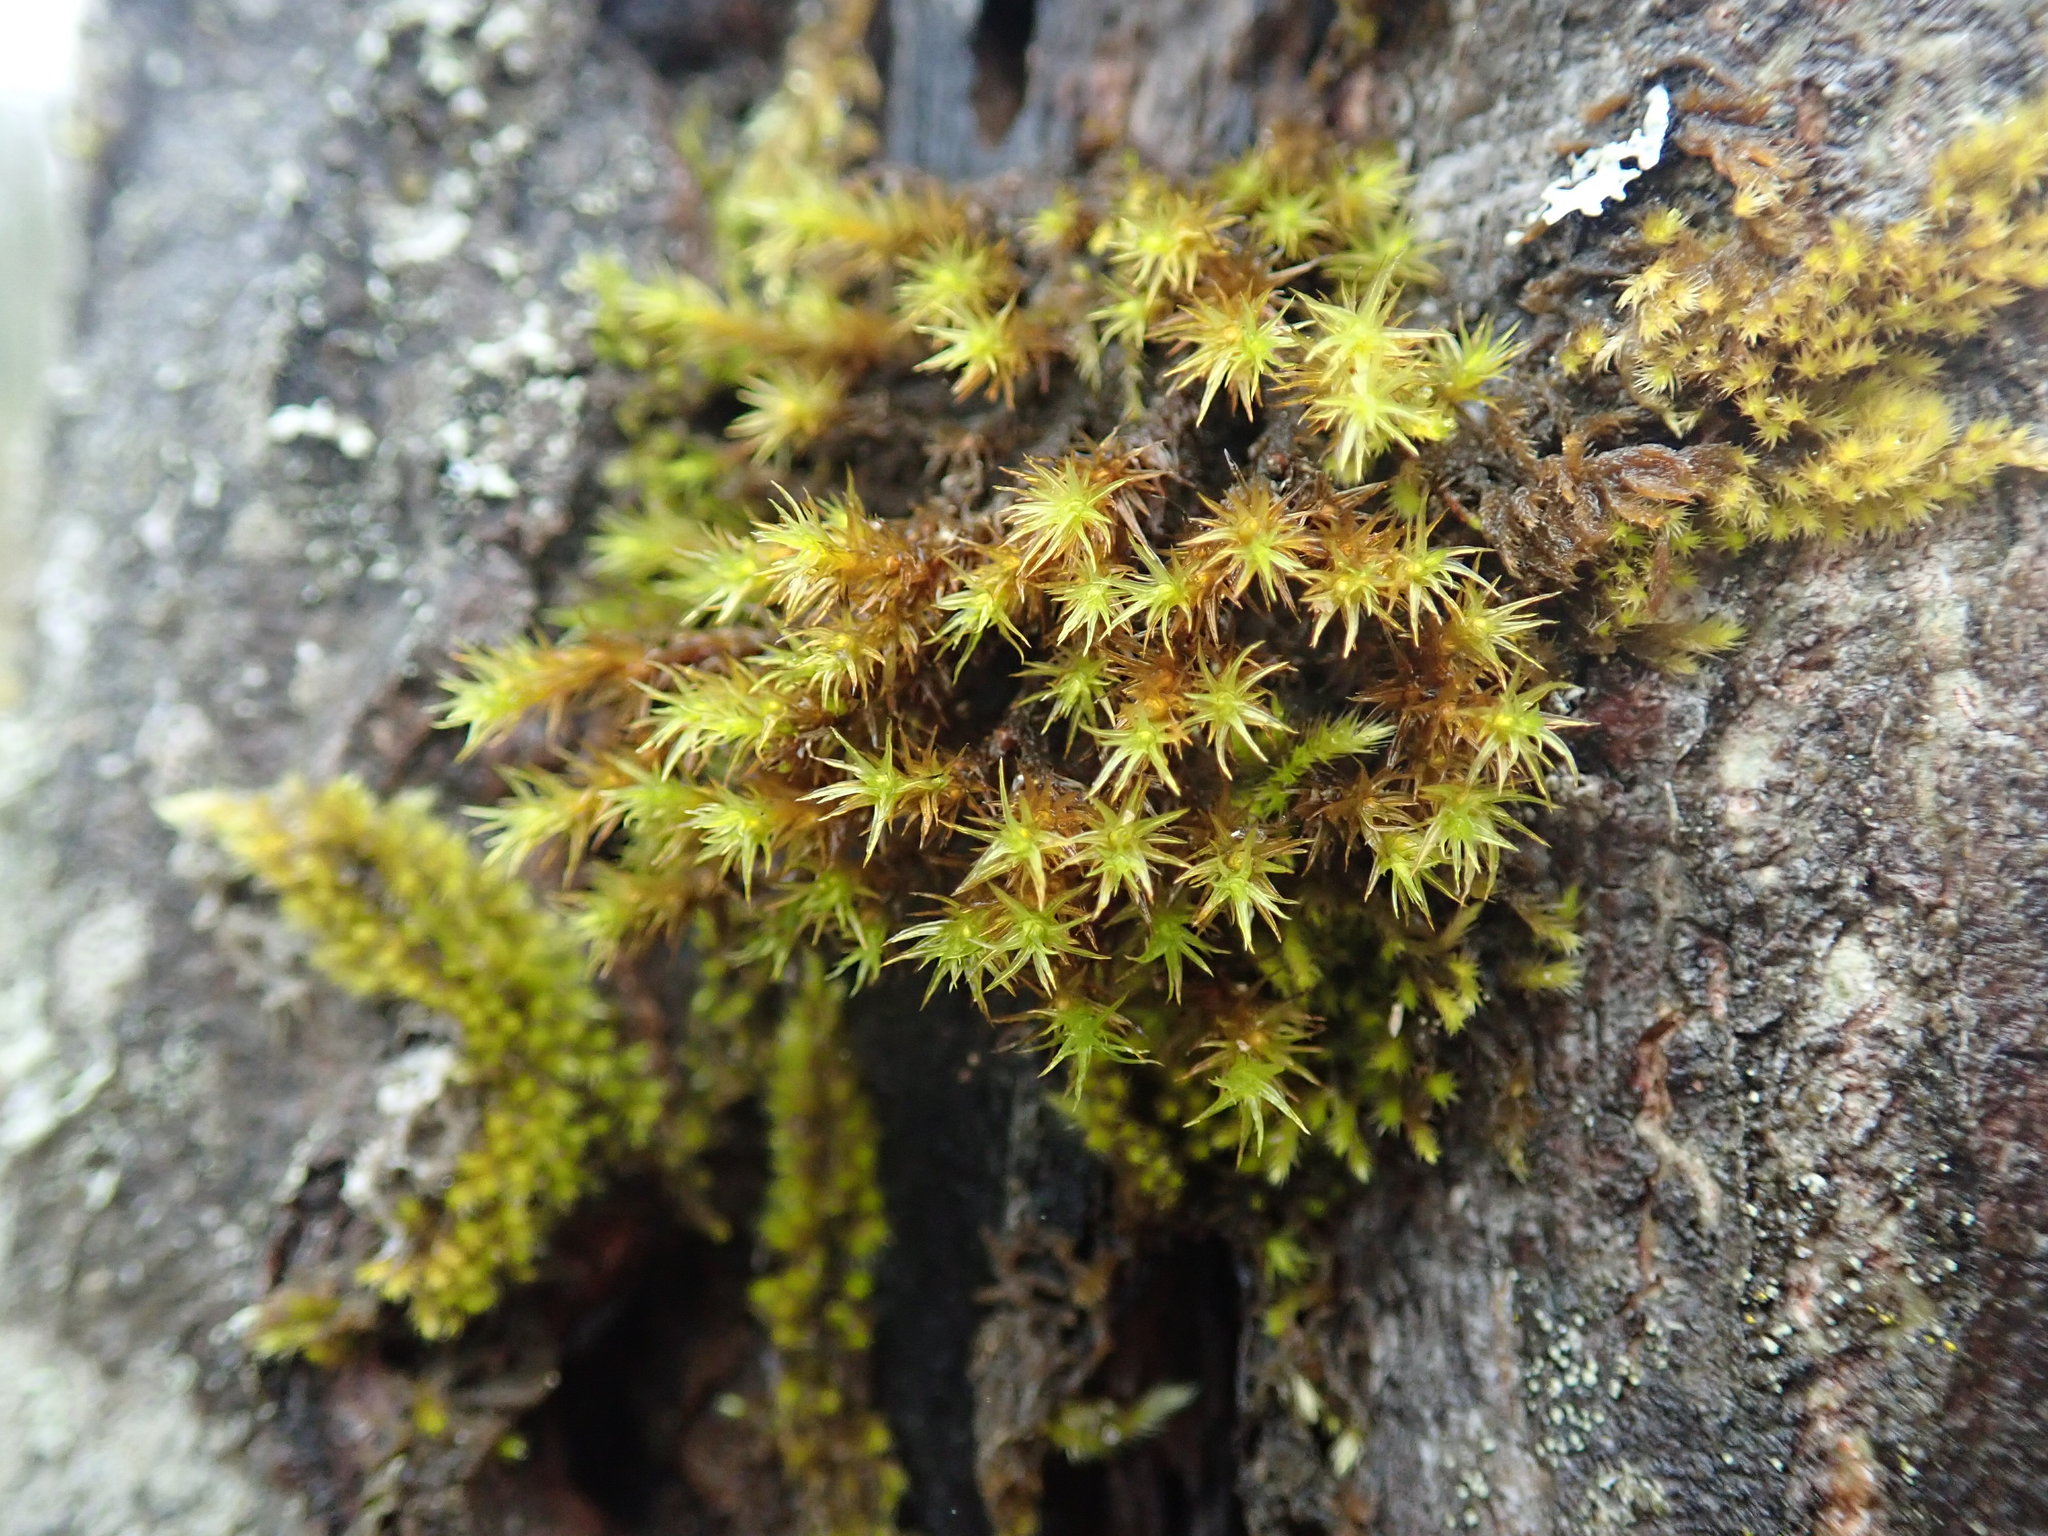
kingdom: Plantae
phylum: Bryophyta
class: Bryopsida
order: Orthotrichales
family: Orthotrichaceae
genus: Pulvigera
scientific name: Pulvigera lyellii
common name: Lyell's bristle-moss
